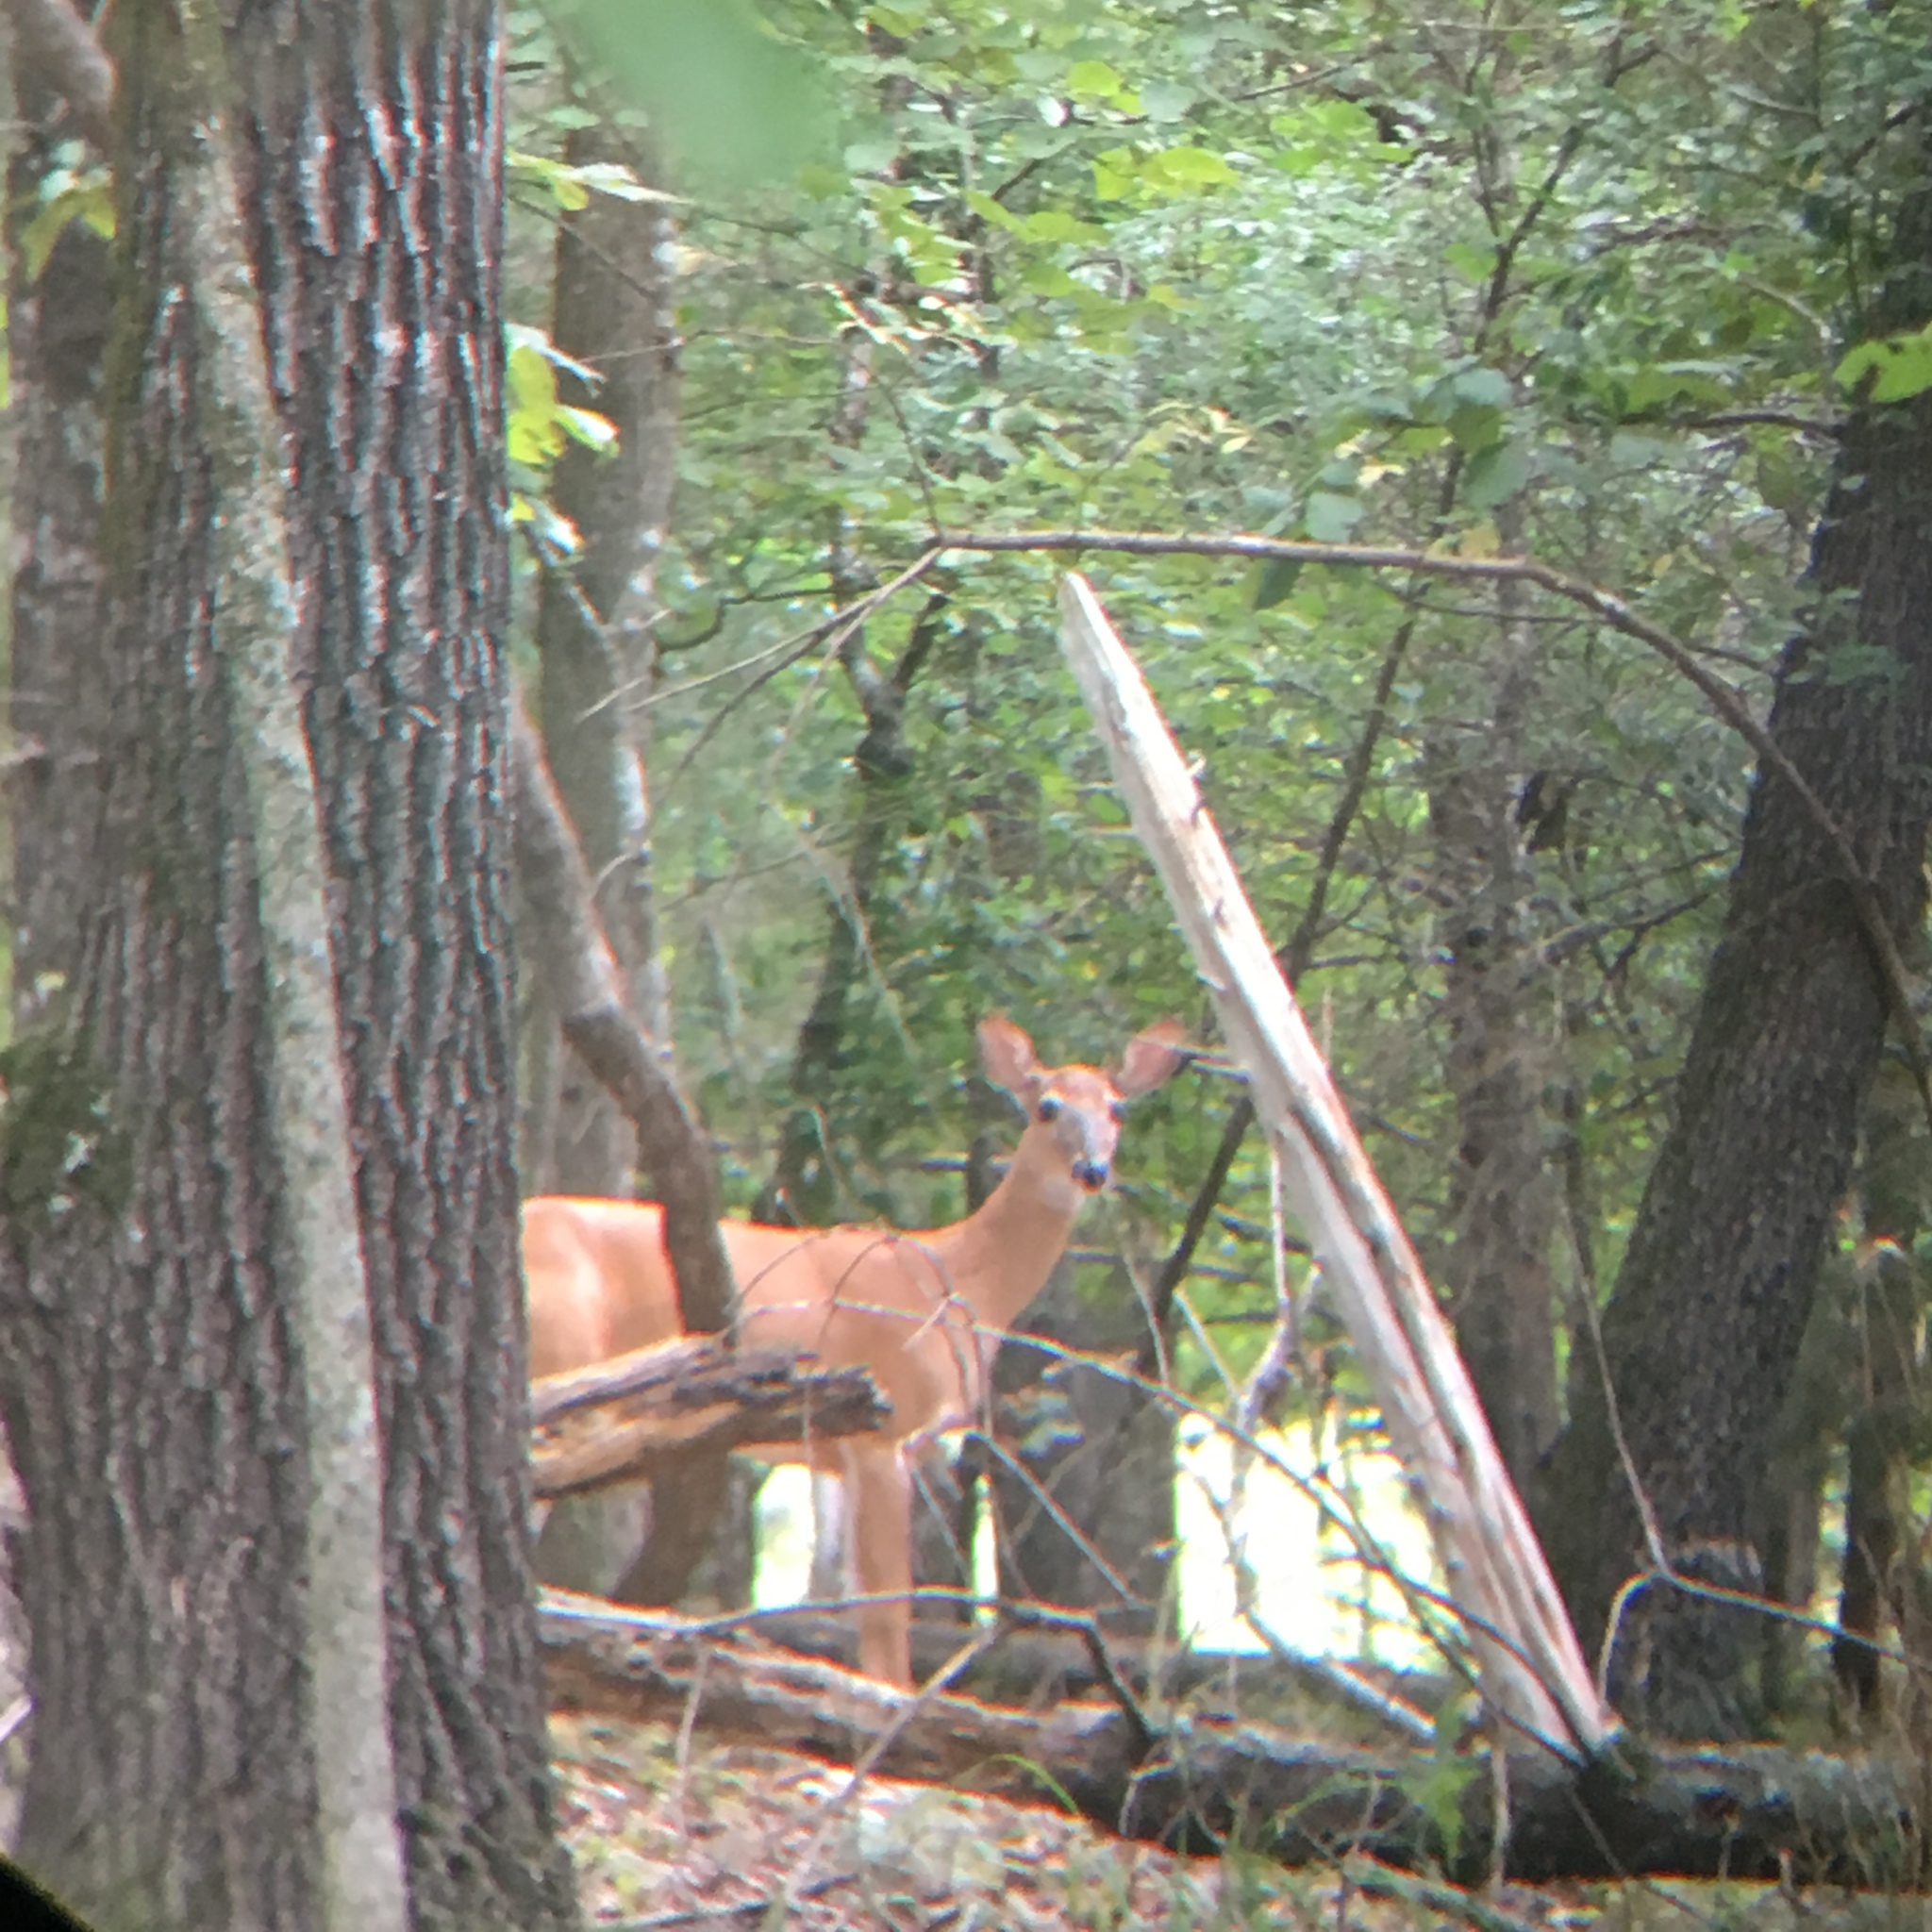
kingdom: Animalia
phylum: Chordata
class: Mammalia
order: Artiodactyla
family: Cervidae
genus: Odocoileus
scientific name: Odocoileus virginianus
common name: White-tailed deer
